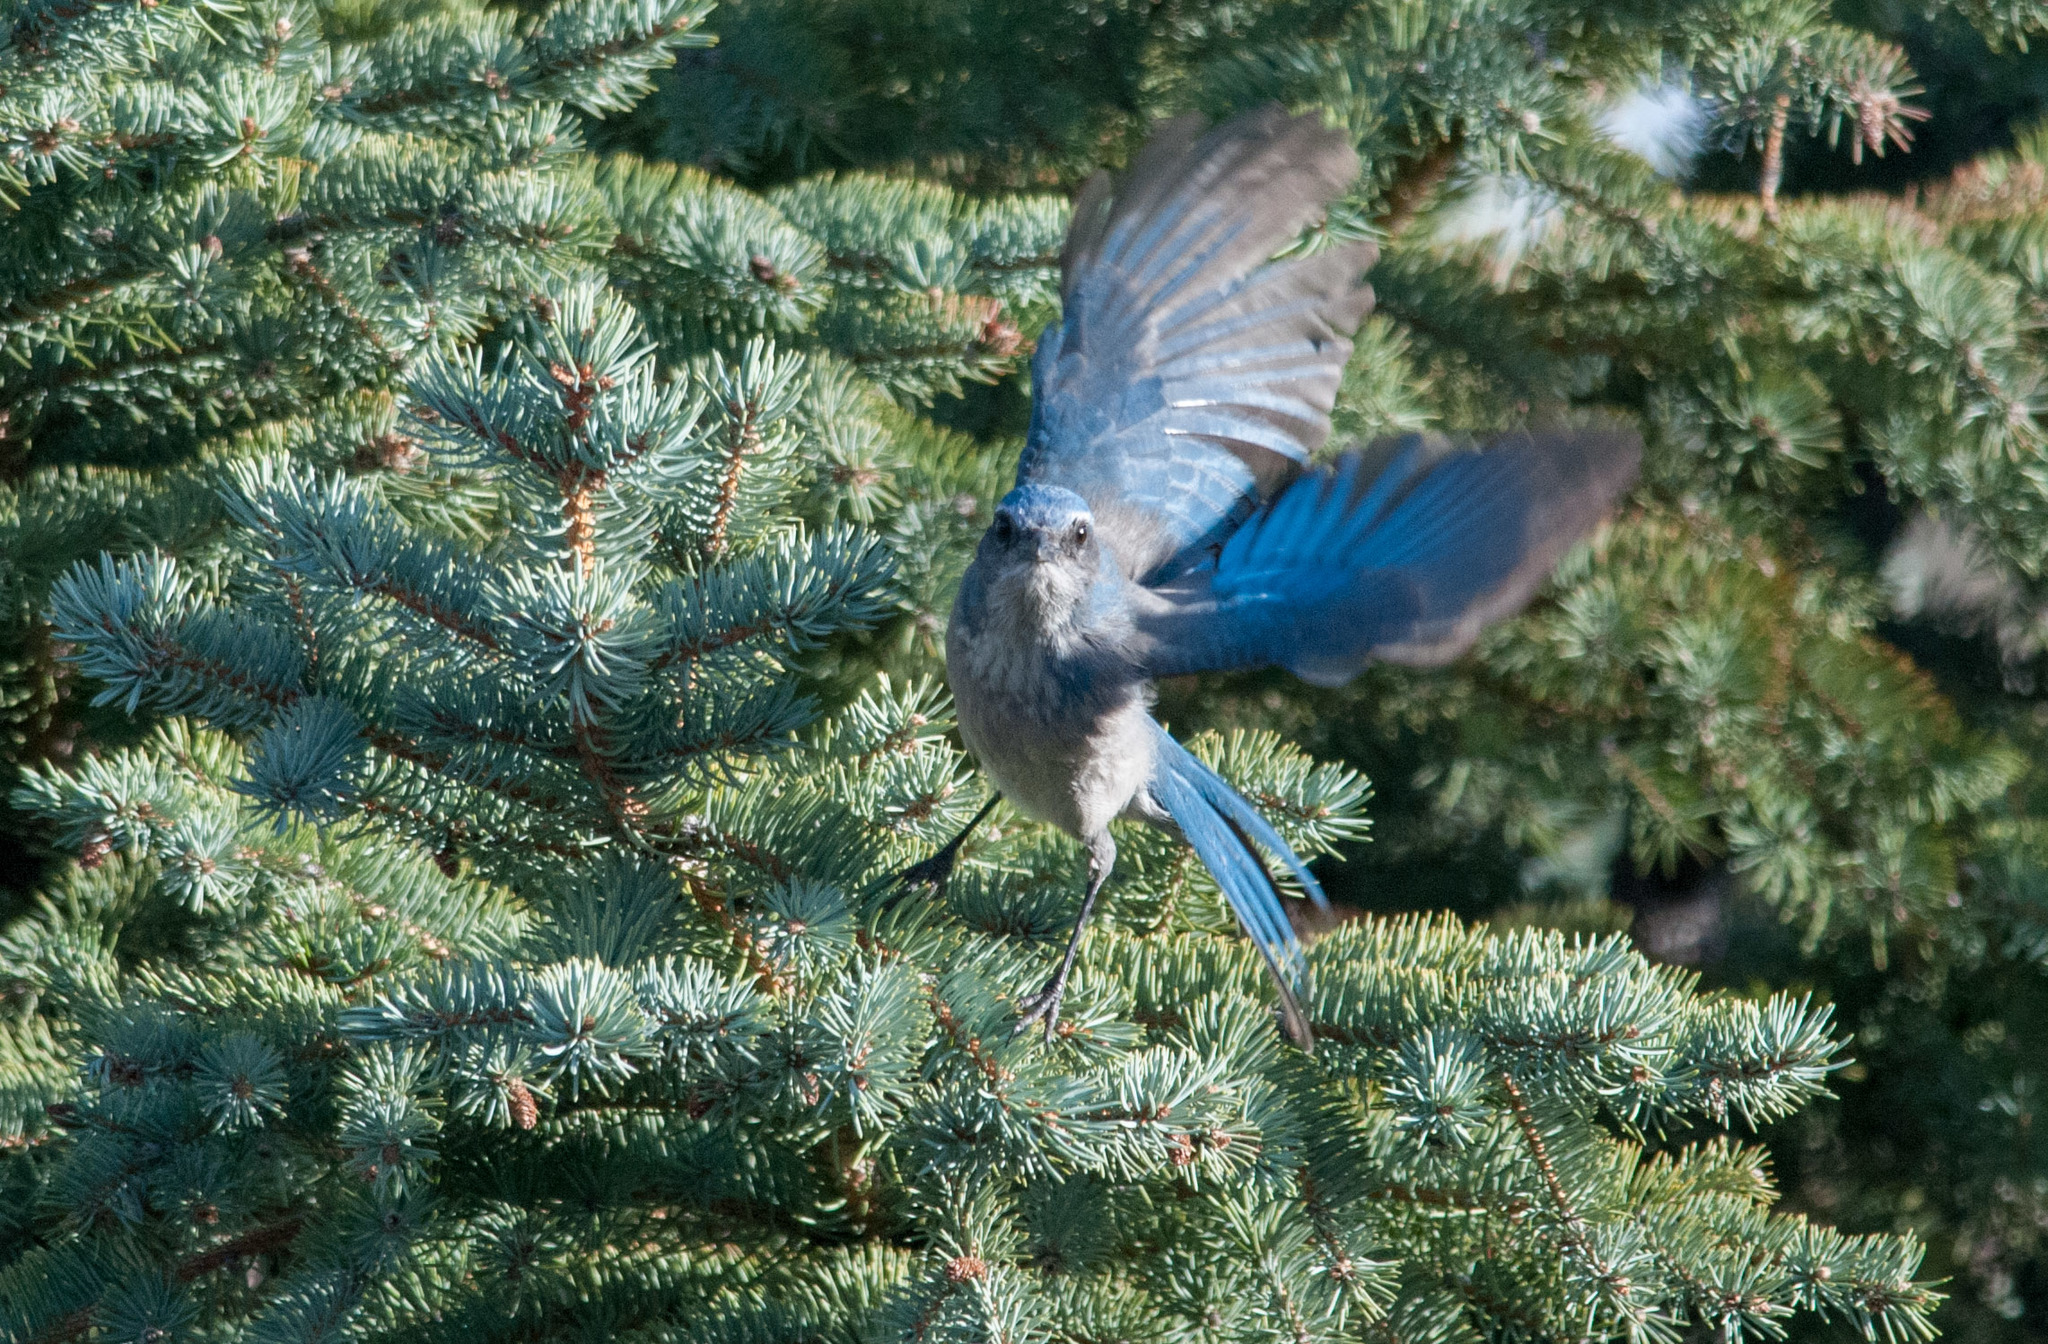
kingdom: Animalia
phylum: Chordata
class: Aves
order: Passeriformes
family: Corvidae
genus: Aphelocoma
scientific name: Aphelocoma woodhouseii
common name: Woodhouse's scrub-jay
